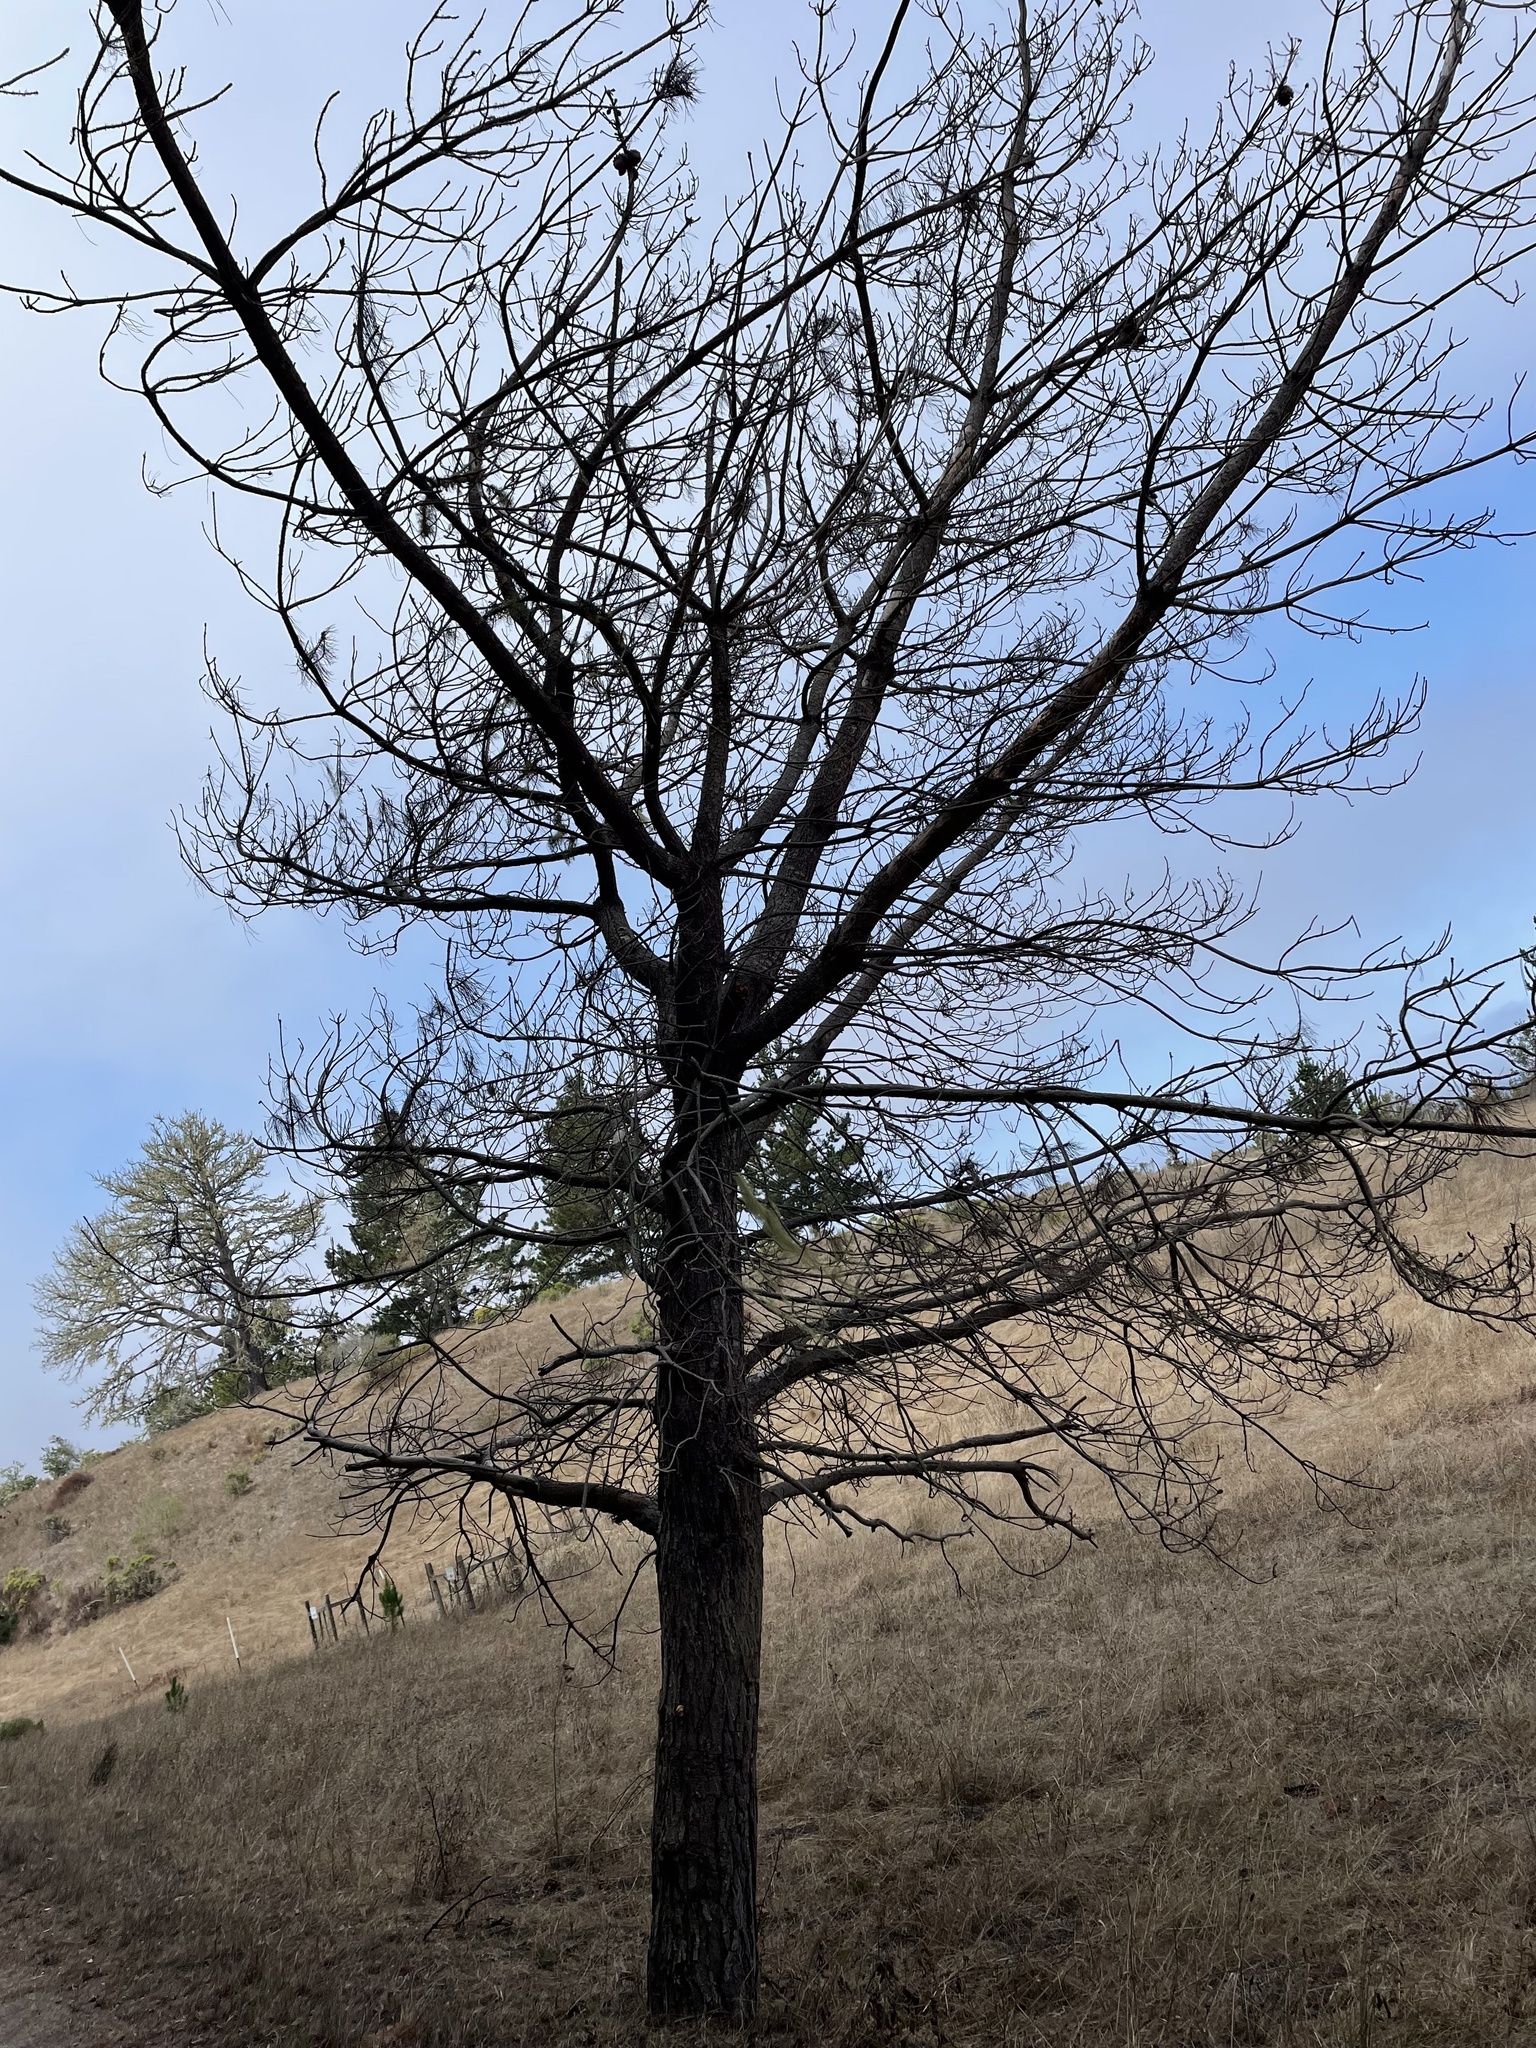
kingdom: Fungi
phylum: Basidiomycota
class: Agaricomycetes
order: Polyporales
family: Polyporaceae
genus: Cryptoporus
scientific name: Cryptoporus volvatus
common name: Veiled polypore
